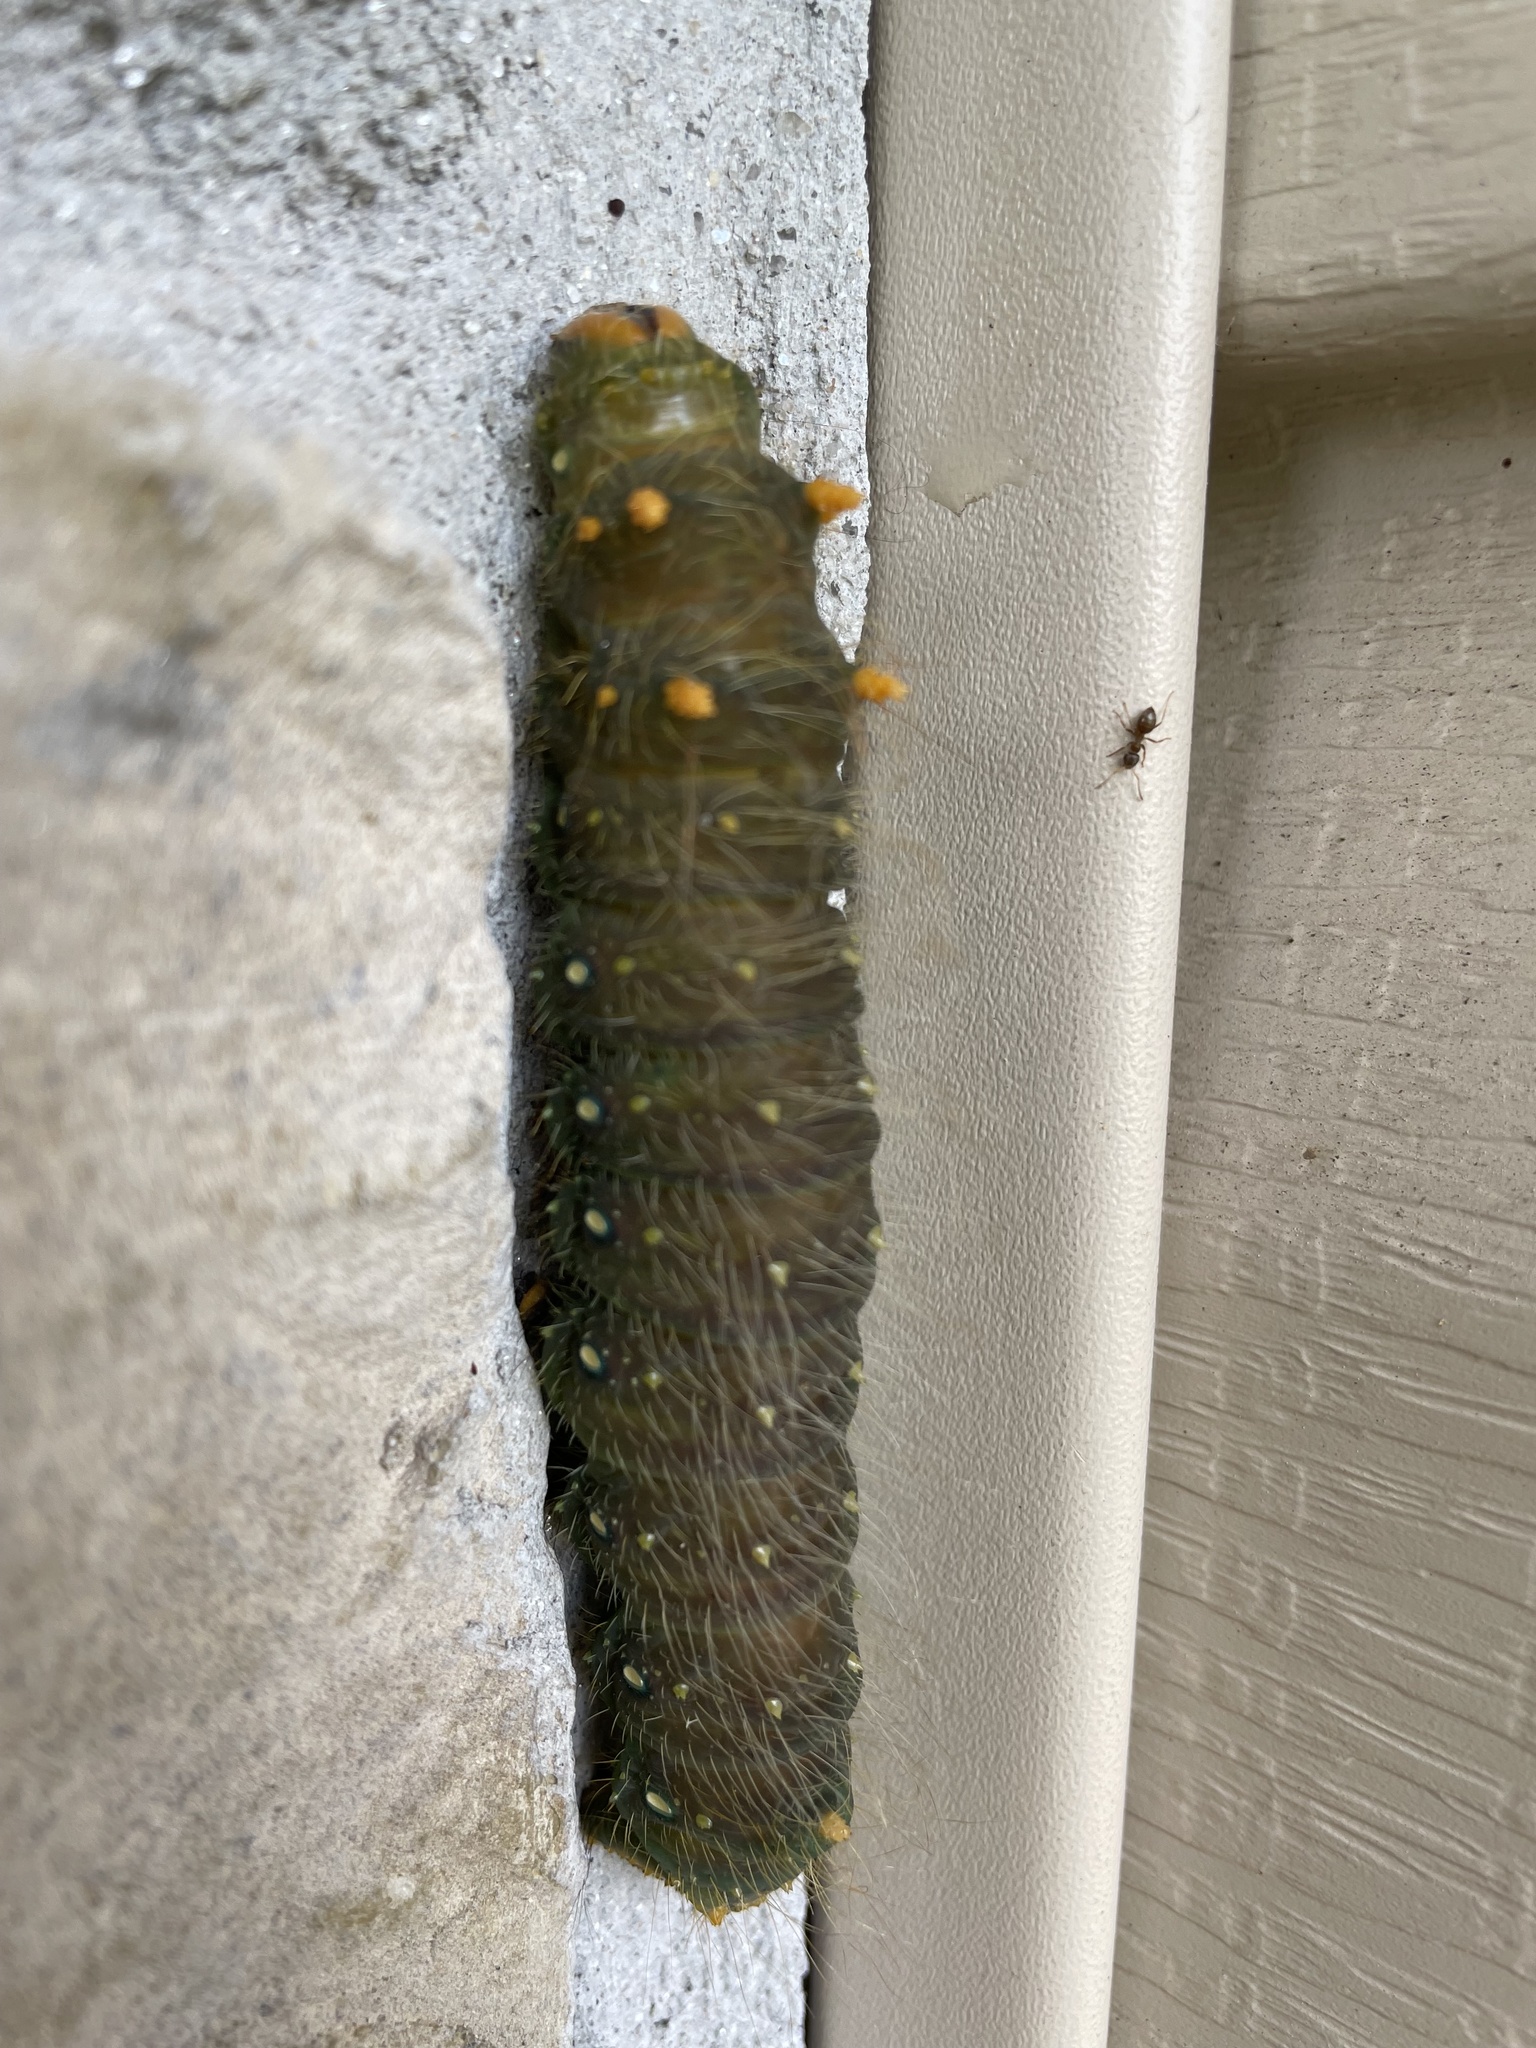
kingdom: Animalia
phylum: Arthropoda
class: Insecta
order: Lepidoptera
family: Saturniidae
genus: Eacles
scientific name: Eacles imperialis
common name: Imperial moth
